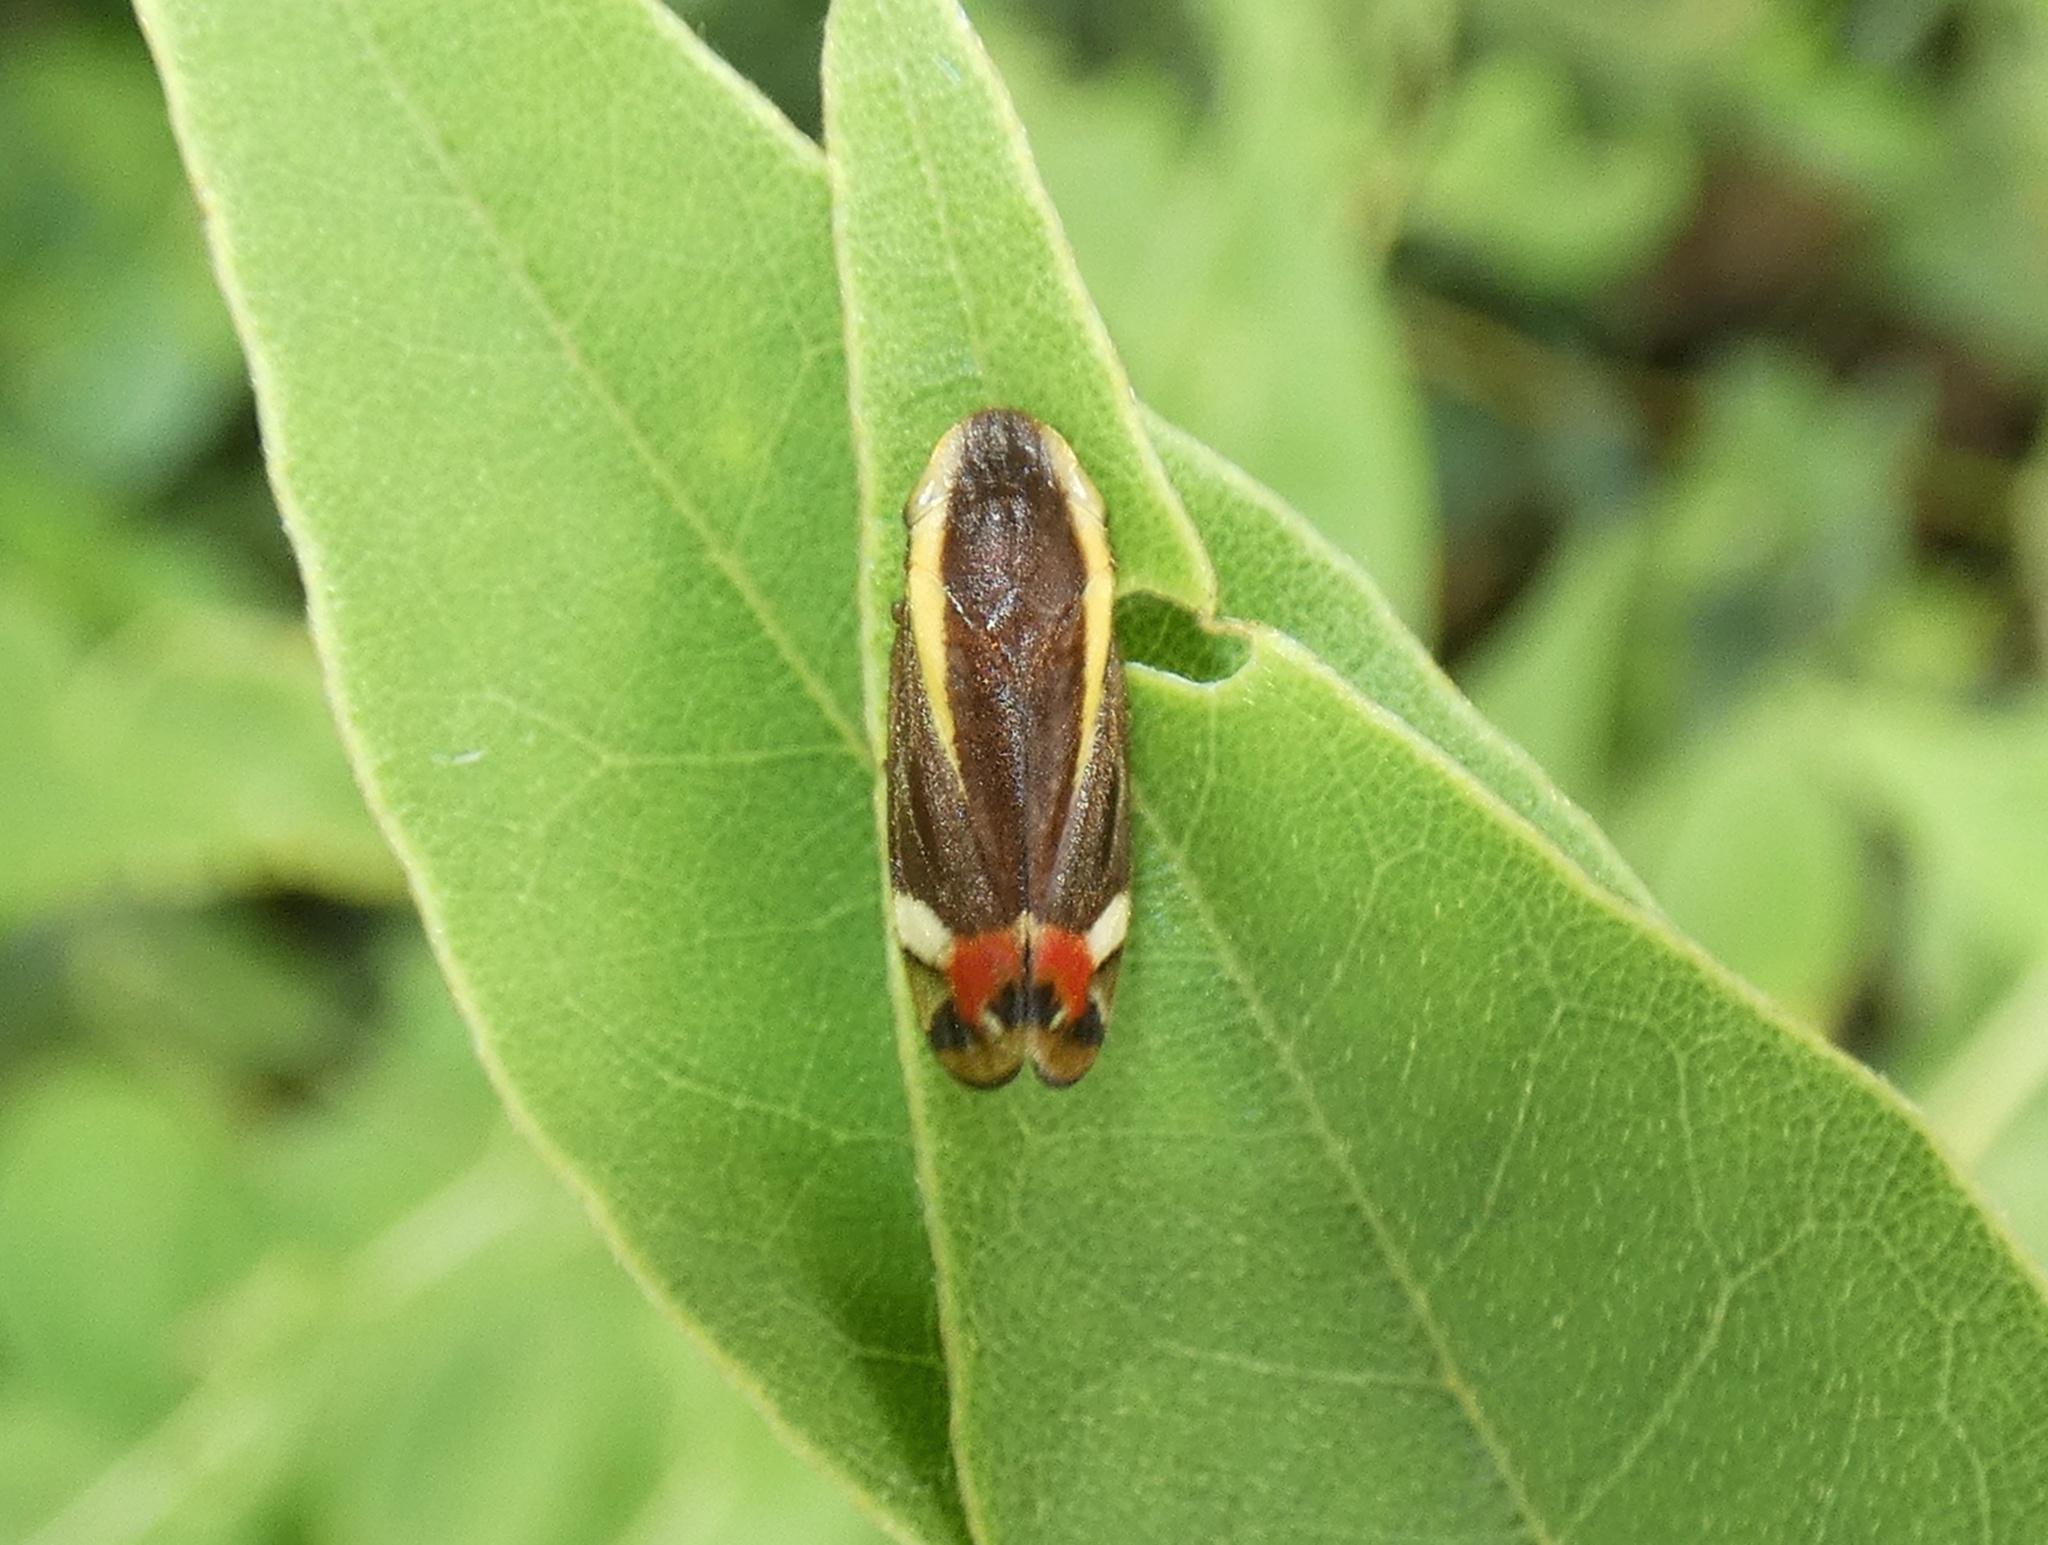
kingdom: Animalia
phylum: Arthropoda
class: Insecta
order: Hemiptera
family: Cercopidae
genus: Microsargane
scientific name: Microsargane vittata
